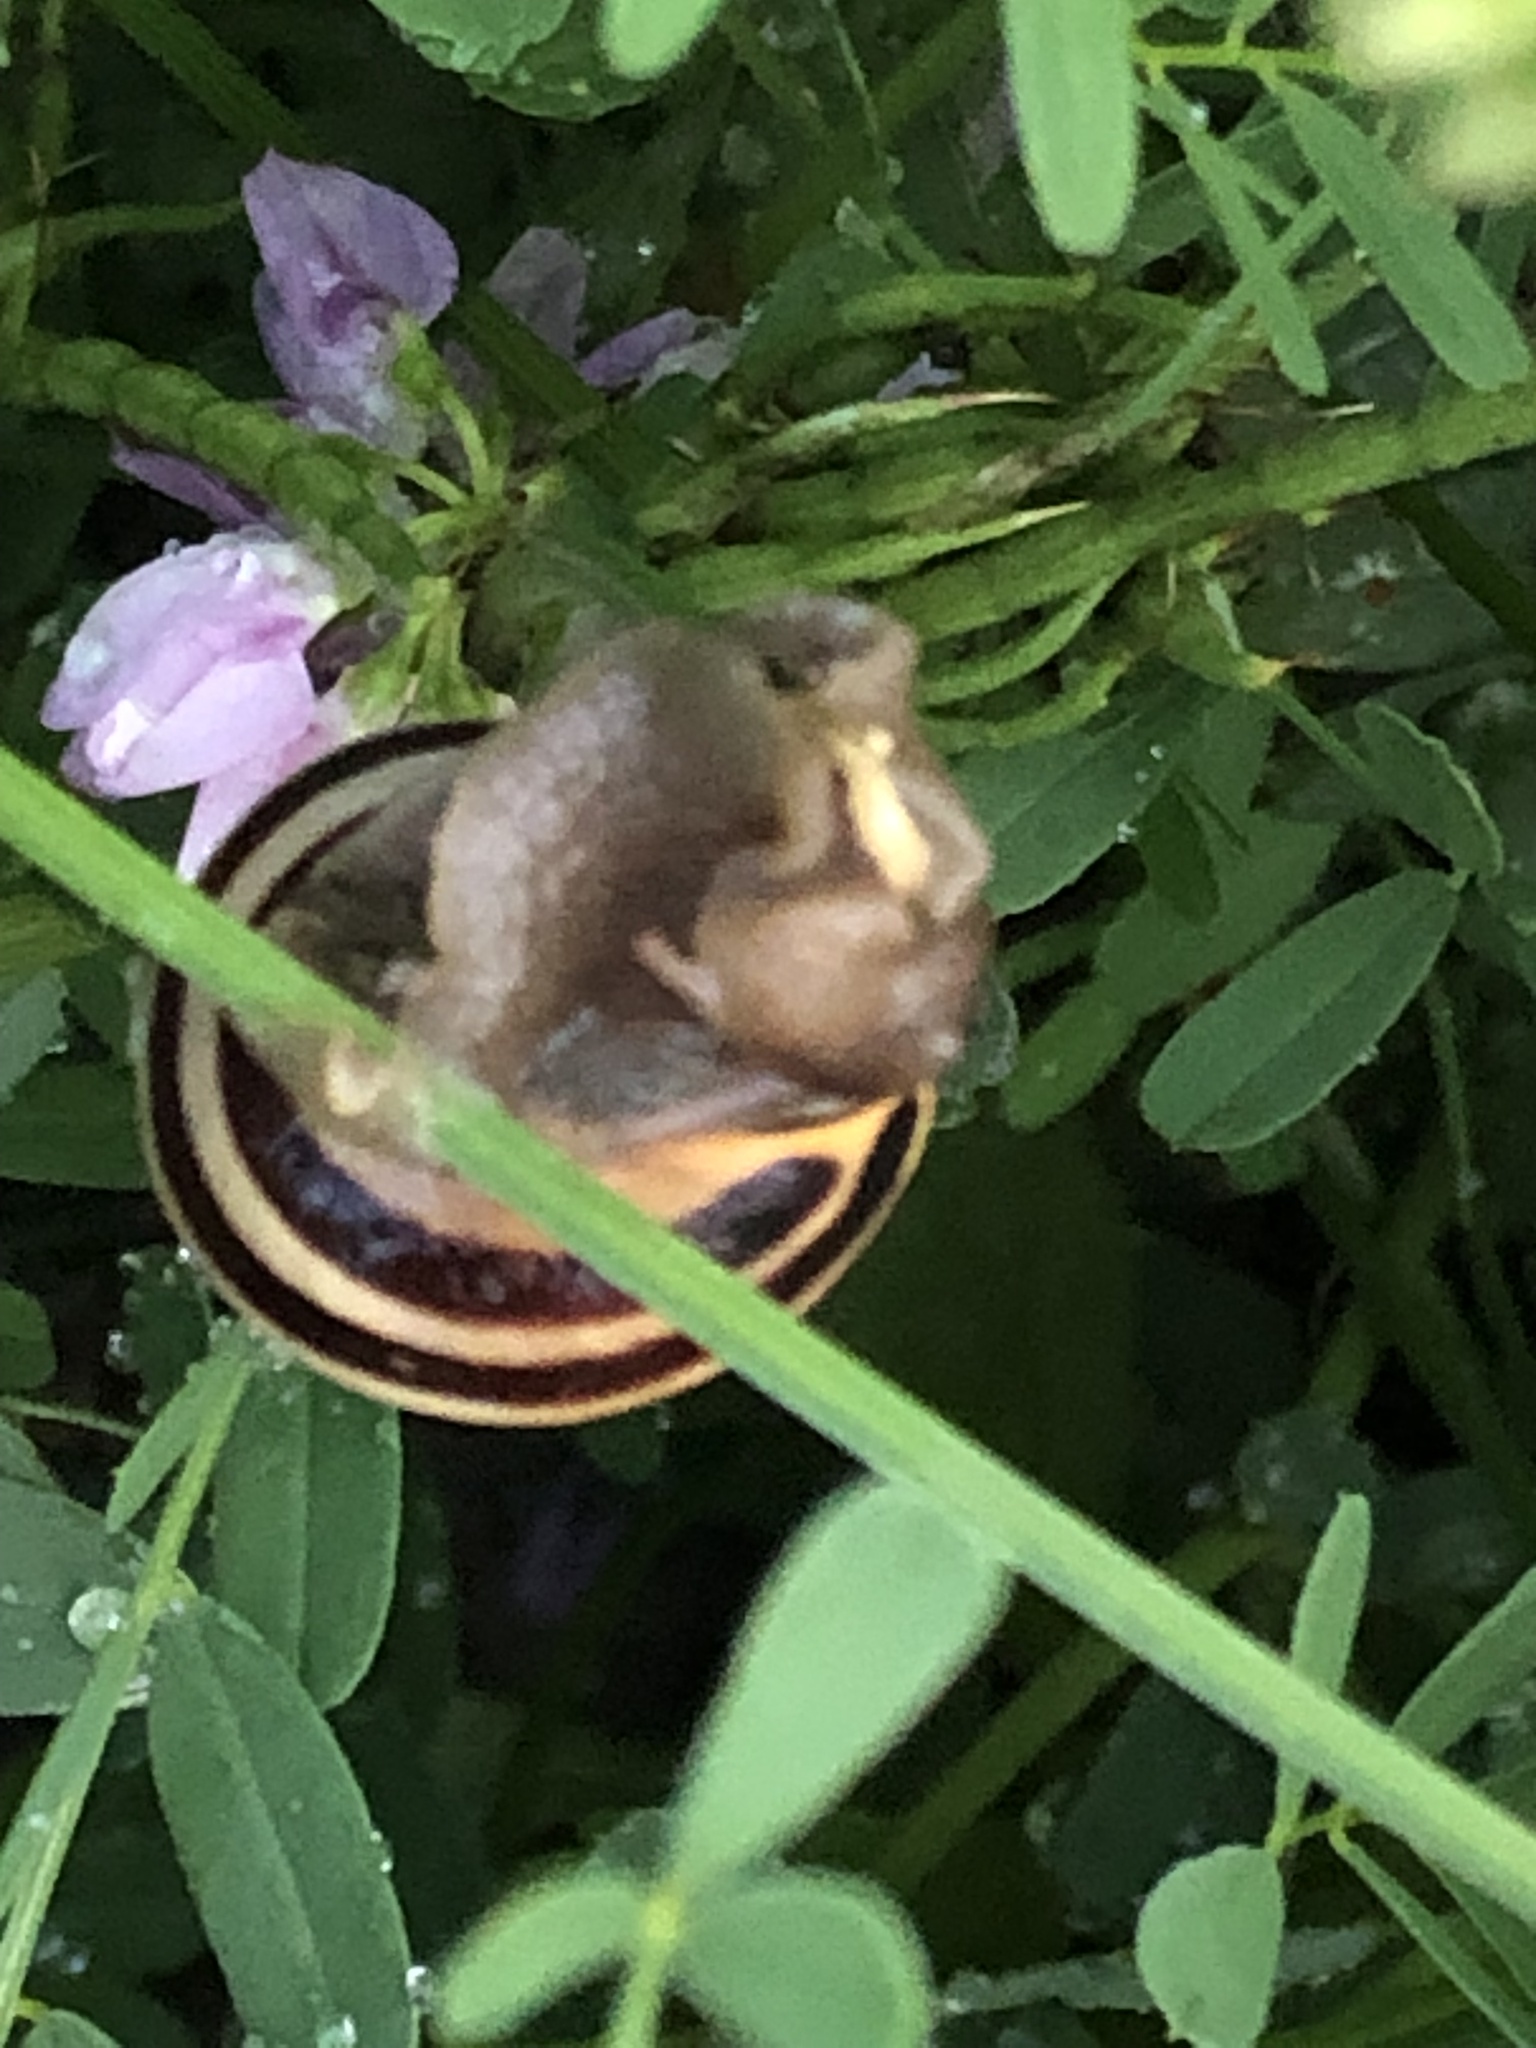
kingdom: Animalia
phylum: Mollusca
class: Gastropoda
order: Stylommatophora
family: Helicidae
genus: Cepaea
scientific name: Cepaea nemoralis
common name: Grovesnail
